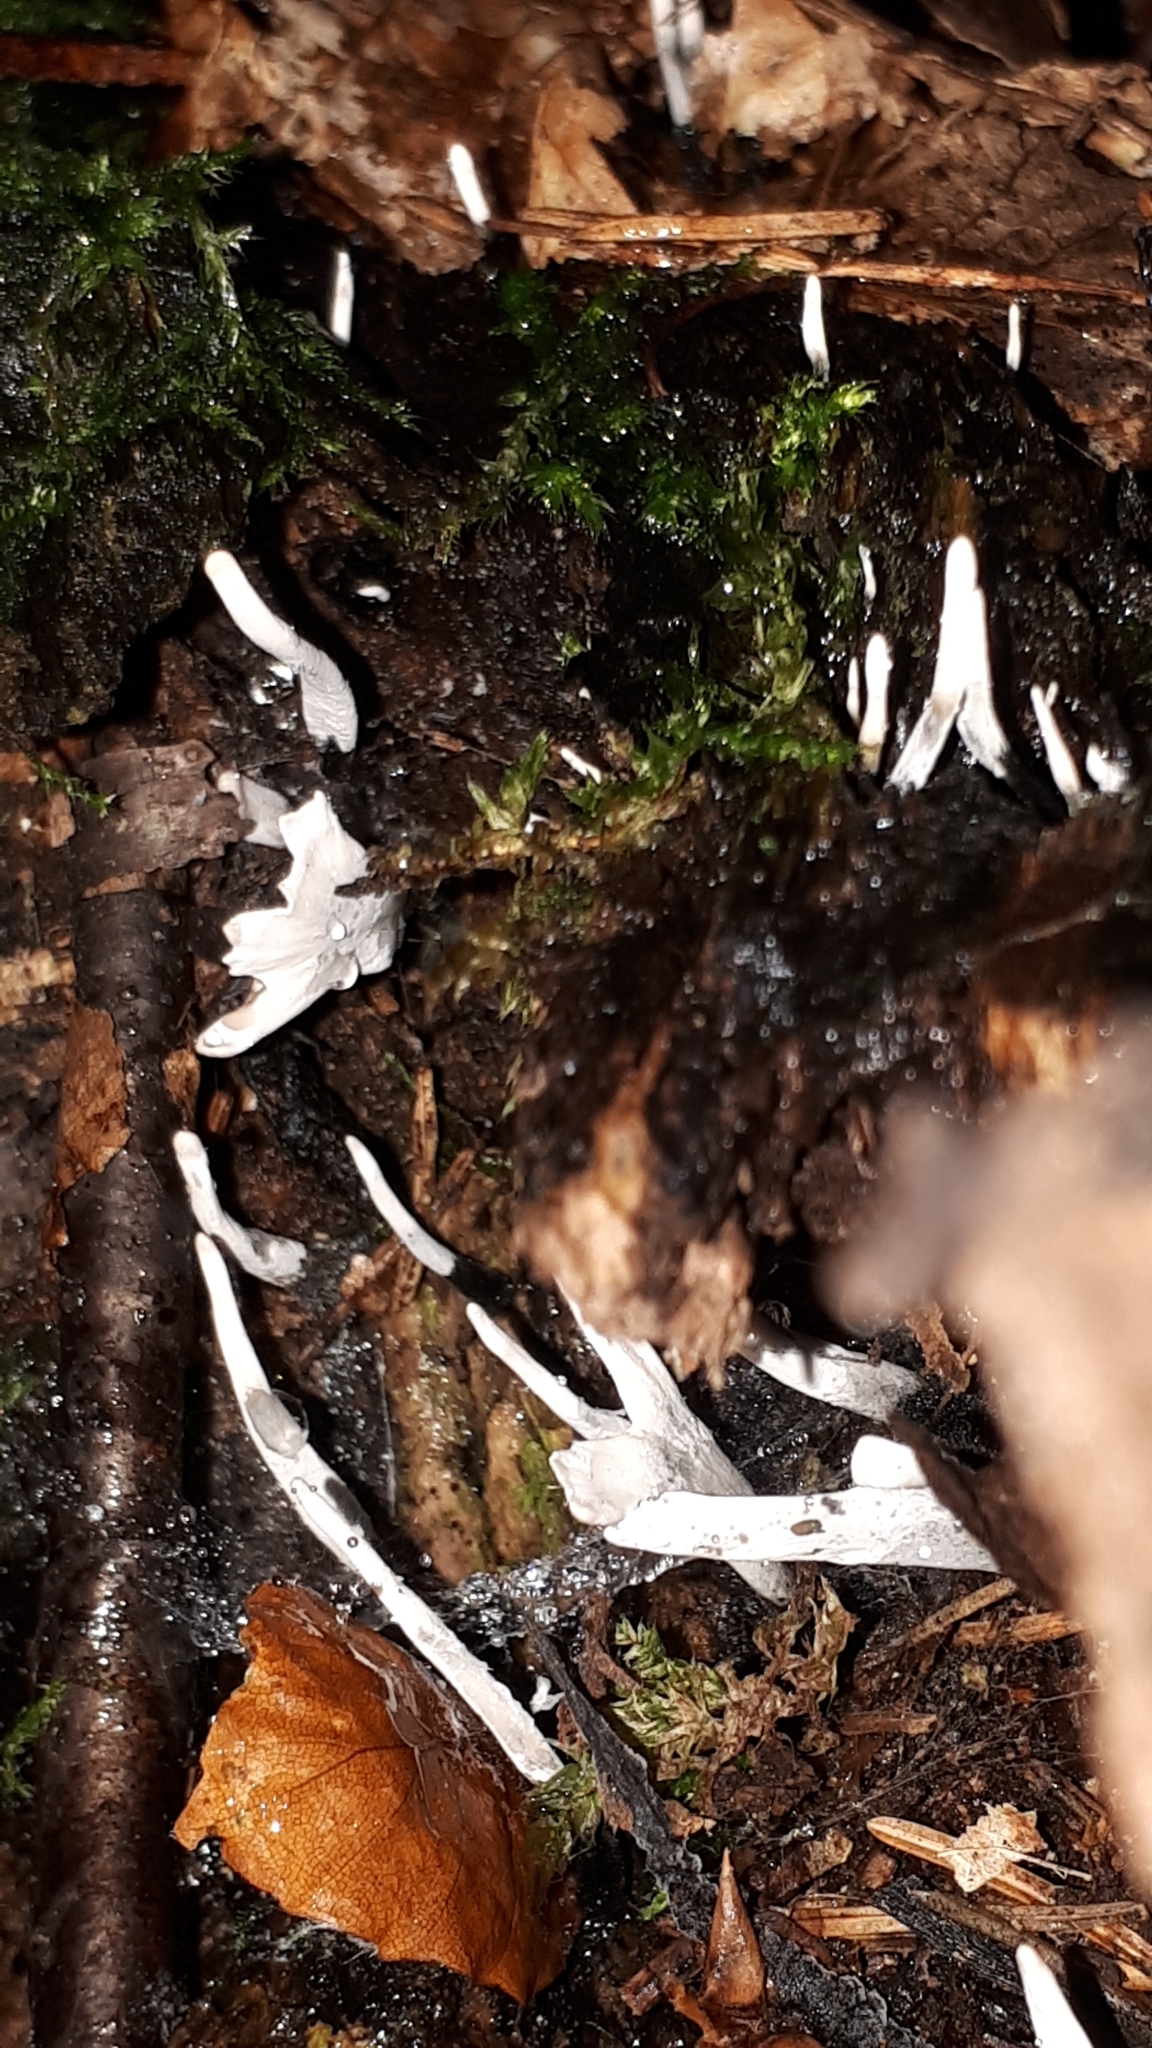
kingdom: Fungi
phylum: Ascomycota
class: Sordariomycetes
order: Xylariales
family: Xylariaceae
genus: Xylaria
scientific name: Xylaria hypoxylon
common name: Candle-snuff fungus
